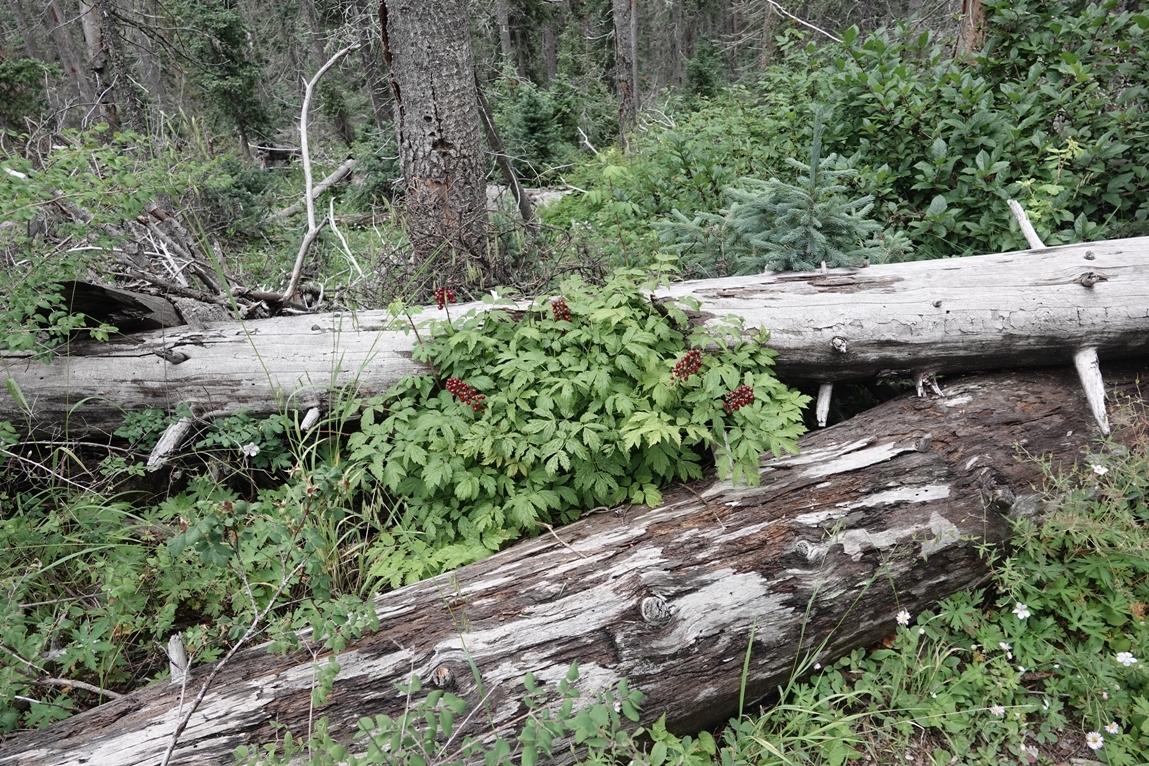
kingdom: Plantae
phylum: Tracheophyta
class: Magnoliopsida
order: Ranunculales
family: Ranunculaceae
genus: Actaea
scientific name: Actaea rubra
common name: Red baneberry
